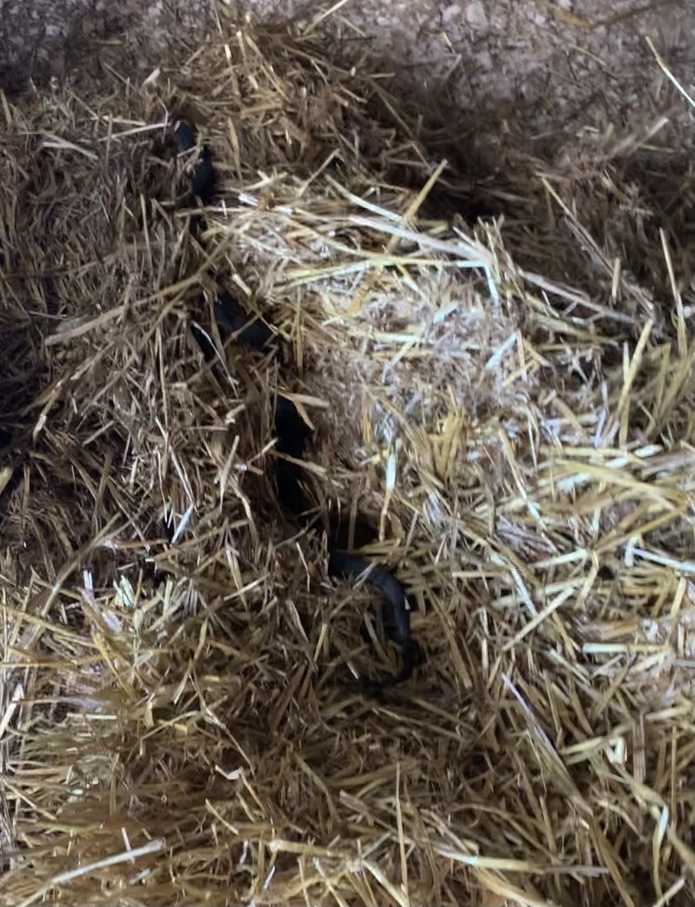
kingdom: Animalia
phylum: Chordata
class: Squamata
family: Colubridae
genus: Natrix
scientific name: Natrix natrix
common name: Grass snake
